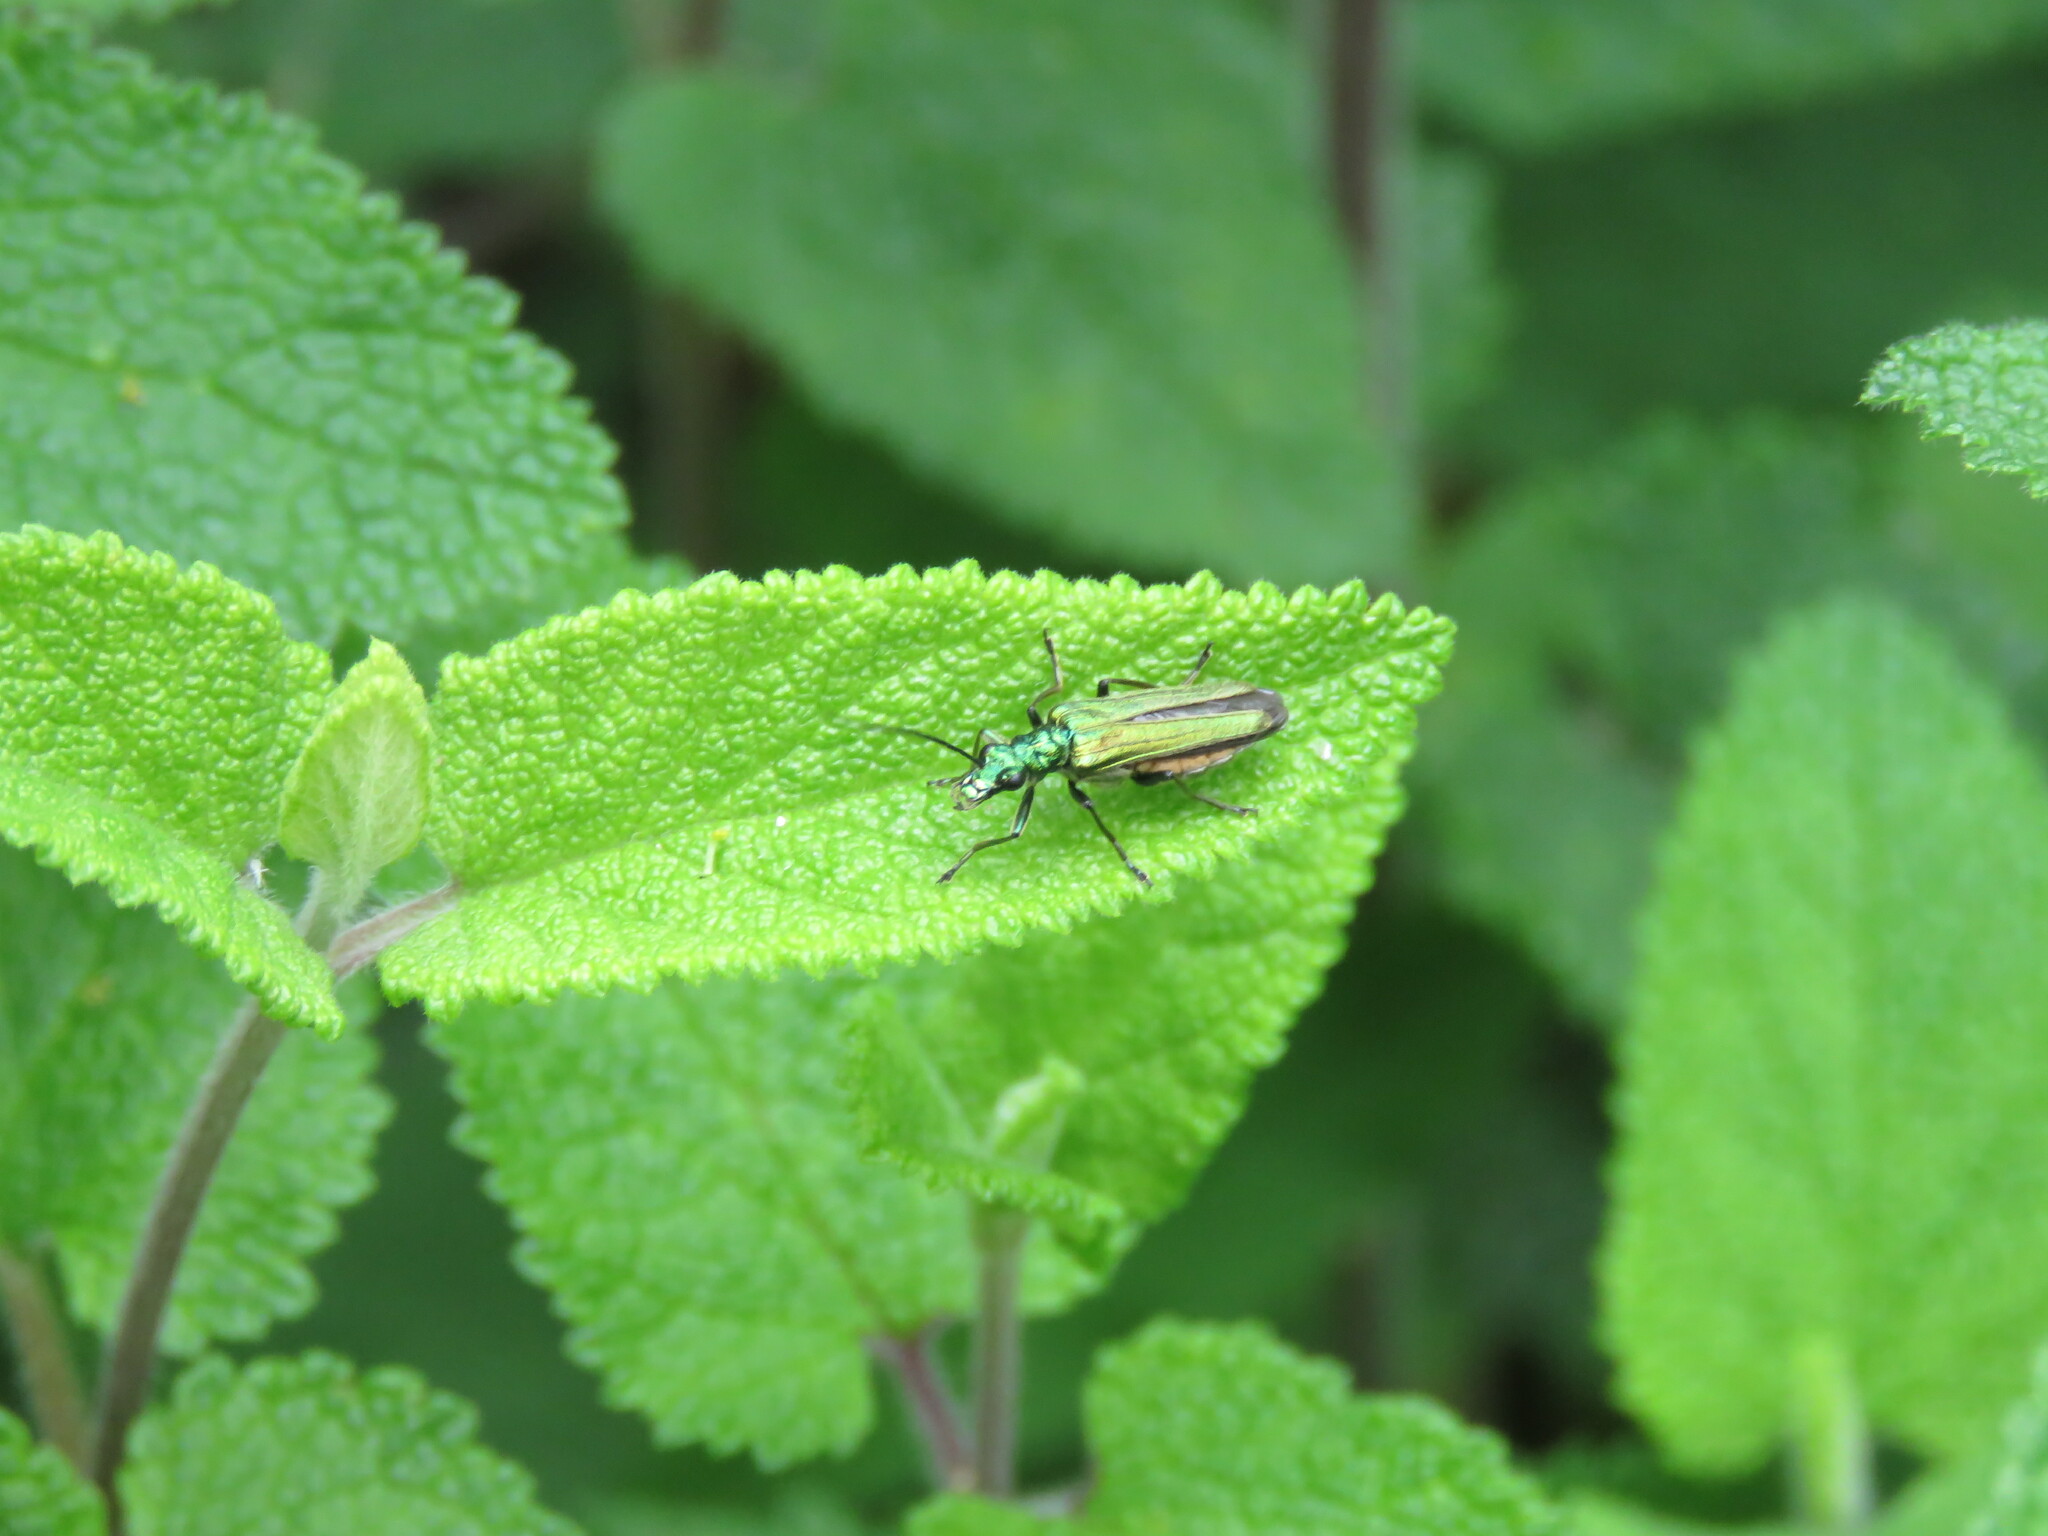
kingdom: Animalia
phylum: Arthropoda
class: Insecta
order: Coleoptera
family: Oedemeridae
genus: Oedemera
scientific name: Oedemera nobilis
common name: Swollen-thighed beetle
